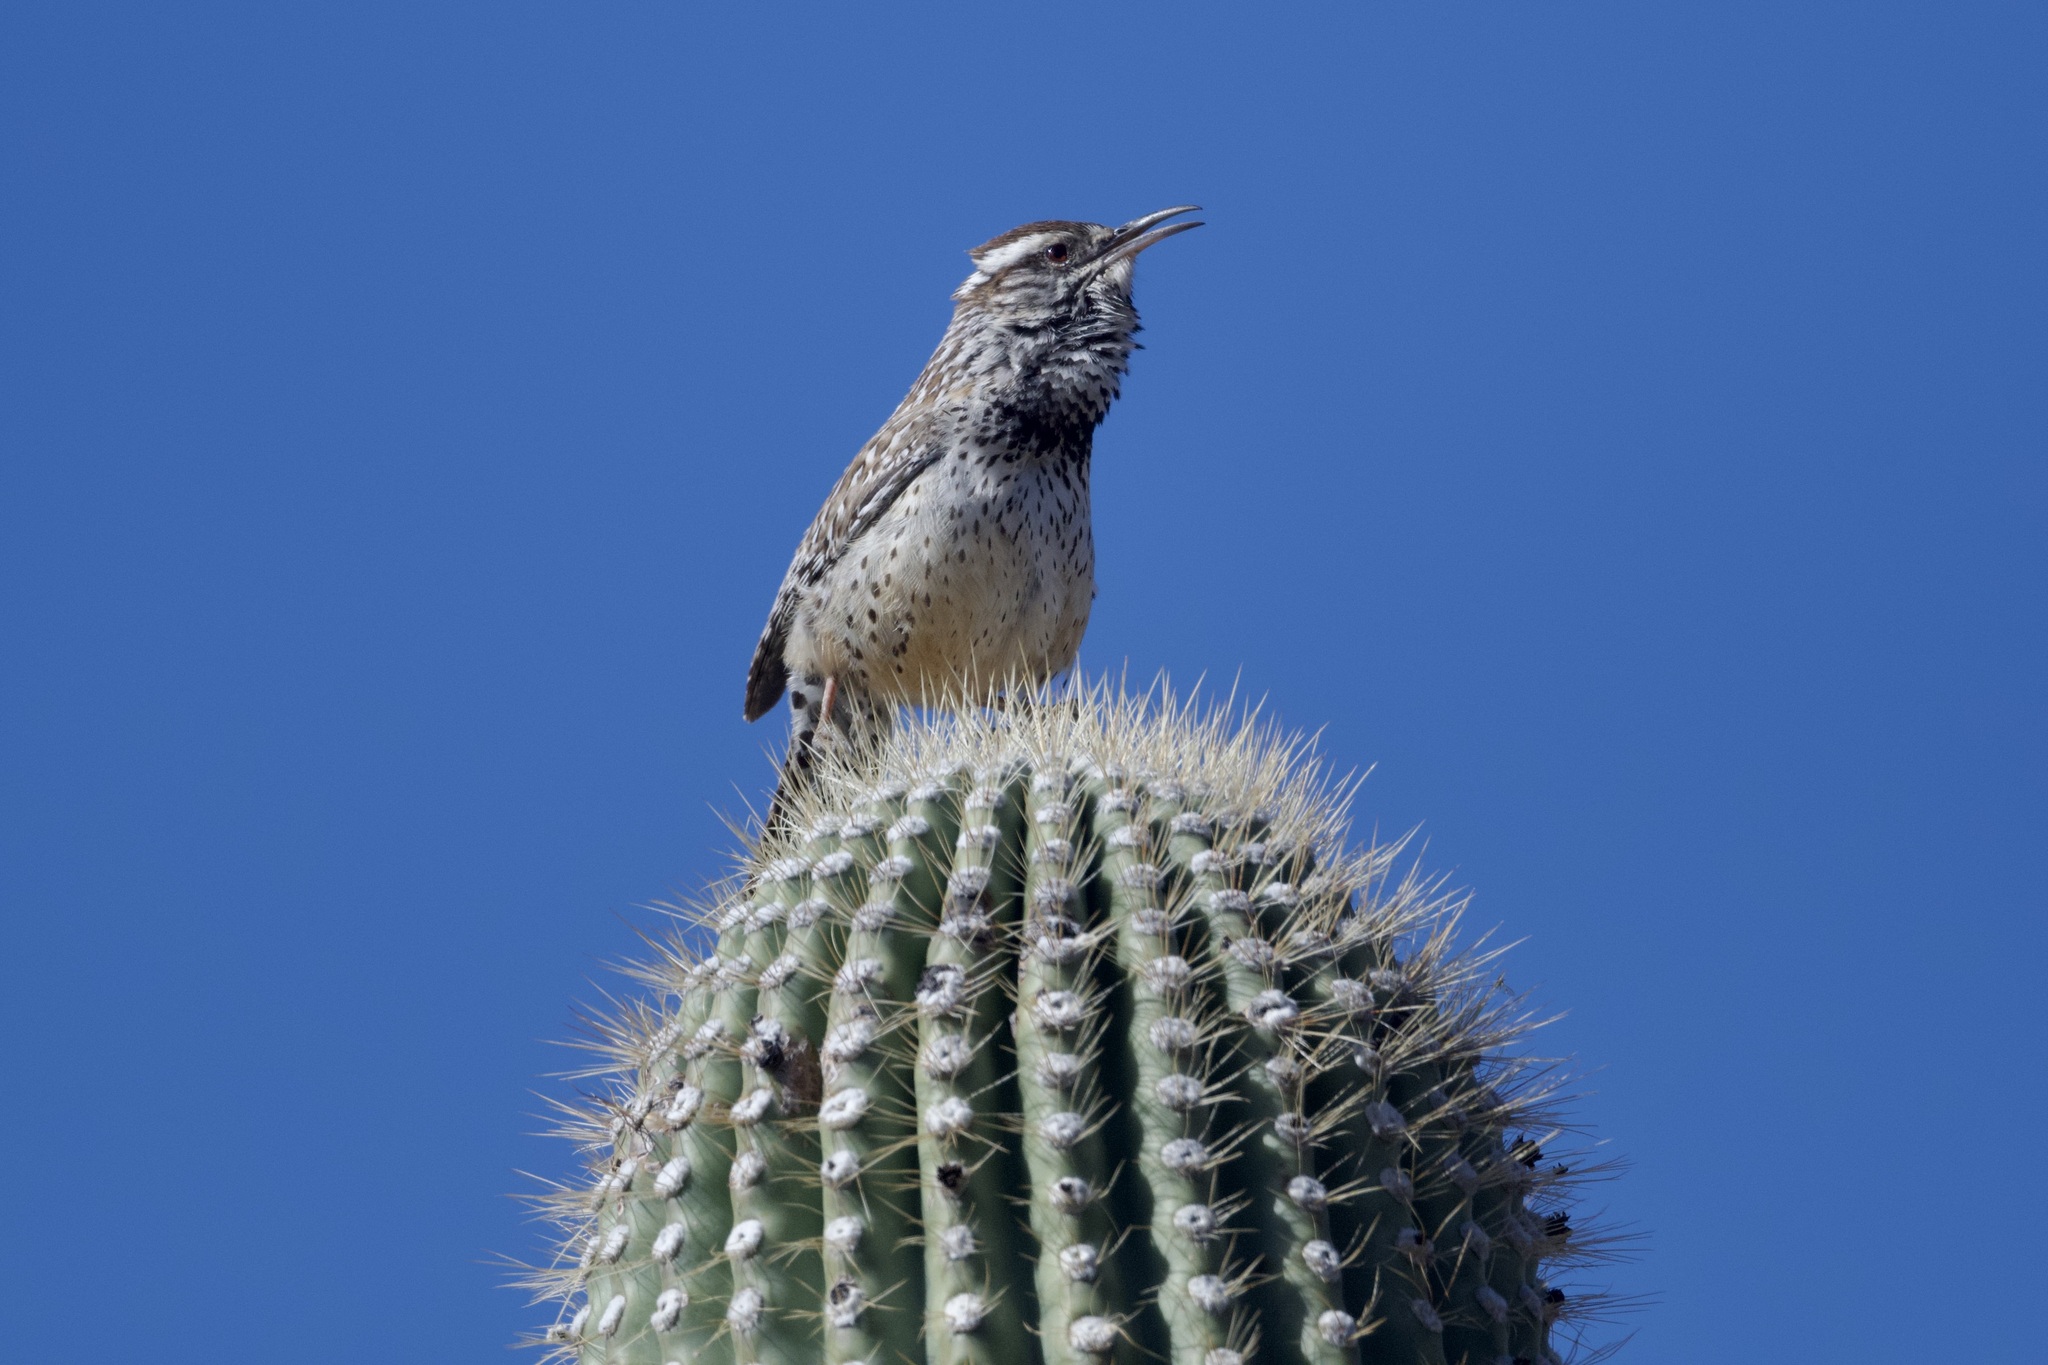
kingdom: Animalia
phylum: Chordata
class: Aves
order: Passeriformes
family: Troglodytidae
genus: Campylorhynchus
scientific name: Campylorhynchus brunneicapillus
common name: Cactus wren
